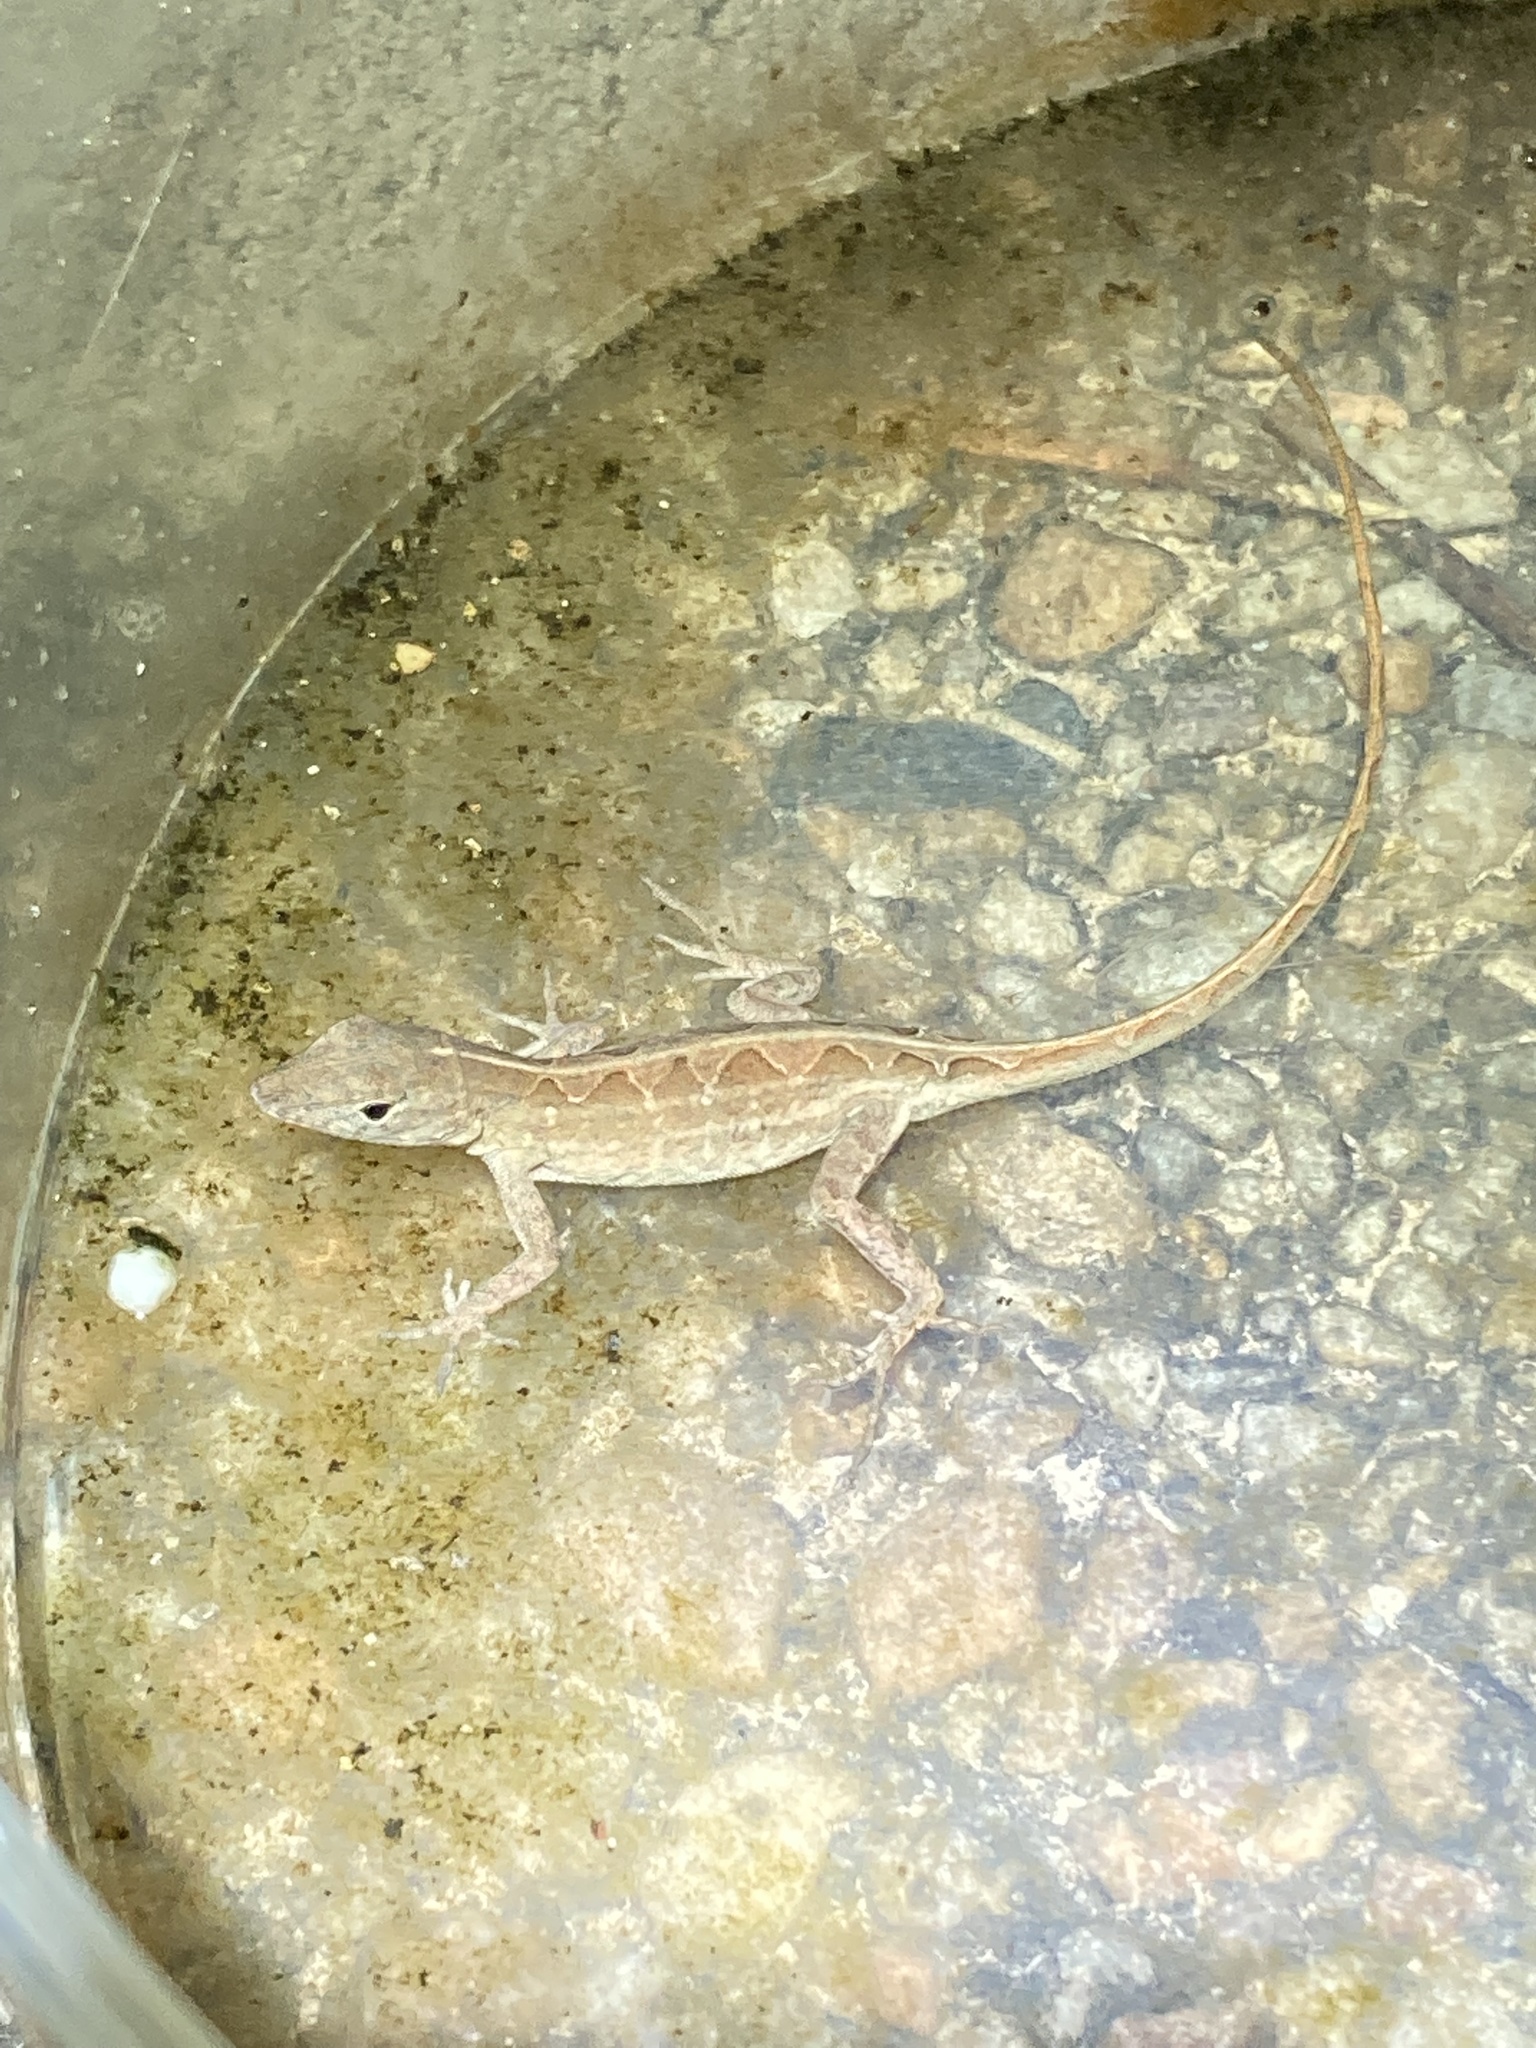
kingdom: Animalia
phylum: Chordata
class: Squamata
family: Dactyloidae
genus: Anolis
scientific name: Anolis sagrei
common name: Brown anole
